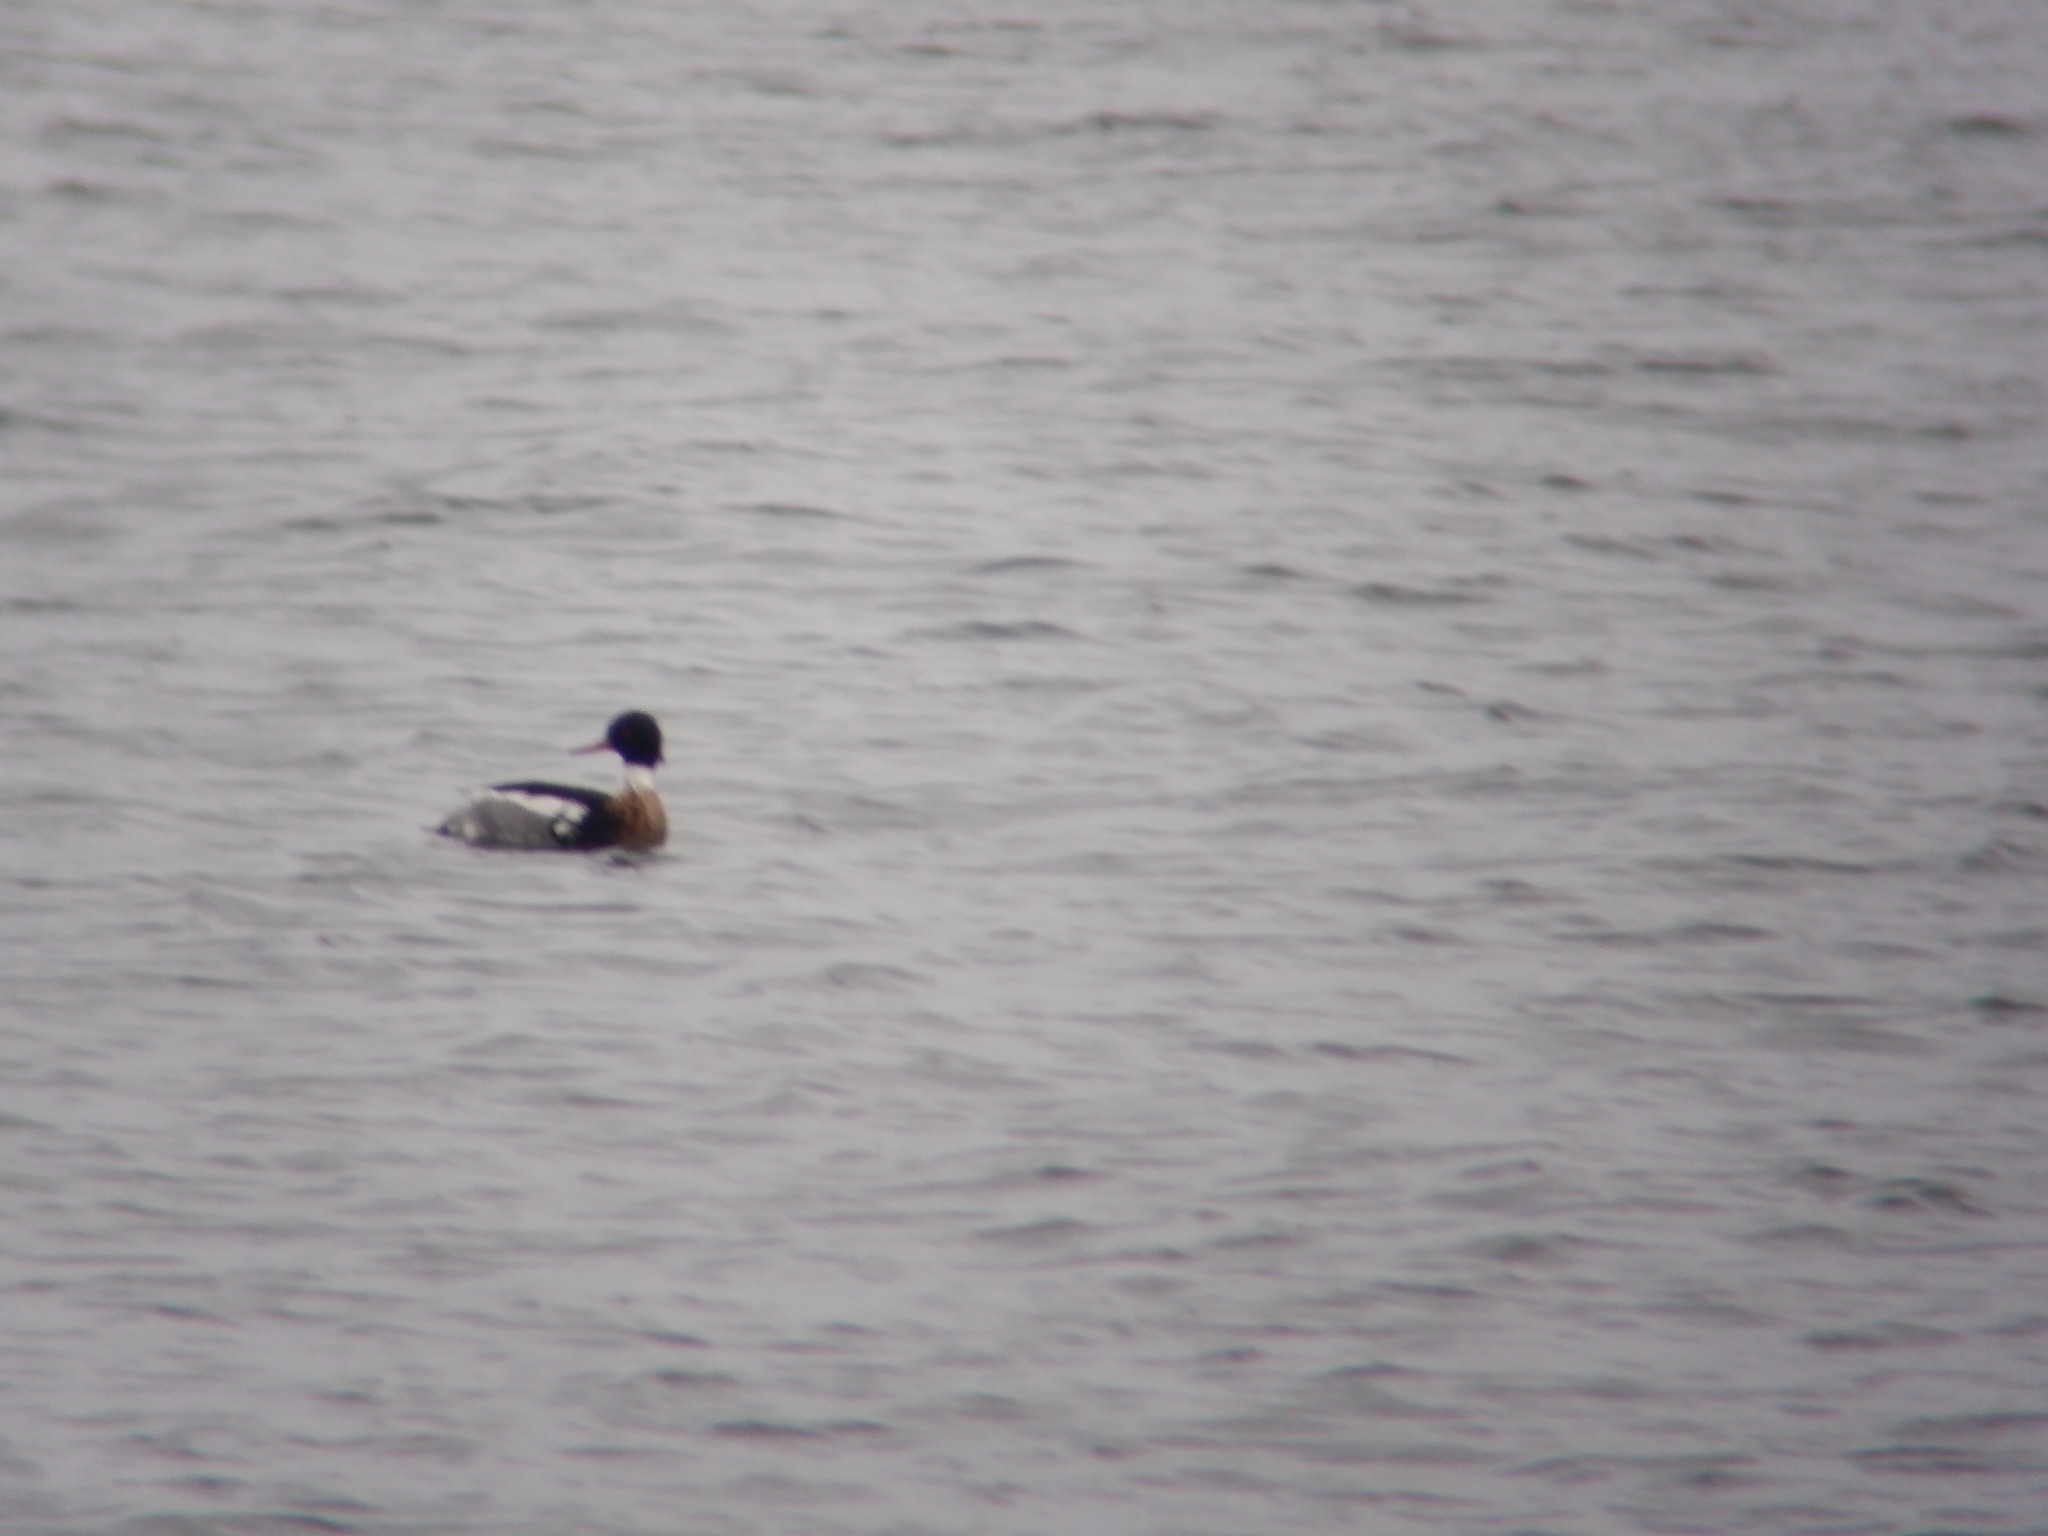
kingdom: Animalia
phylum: Chordata
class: Aves
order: Anseriformes
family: Anatidae
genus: Mergus
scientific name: Mergus serrator
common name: Red-breasted merganser
